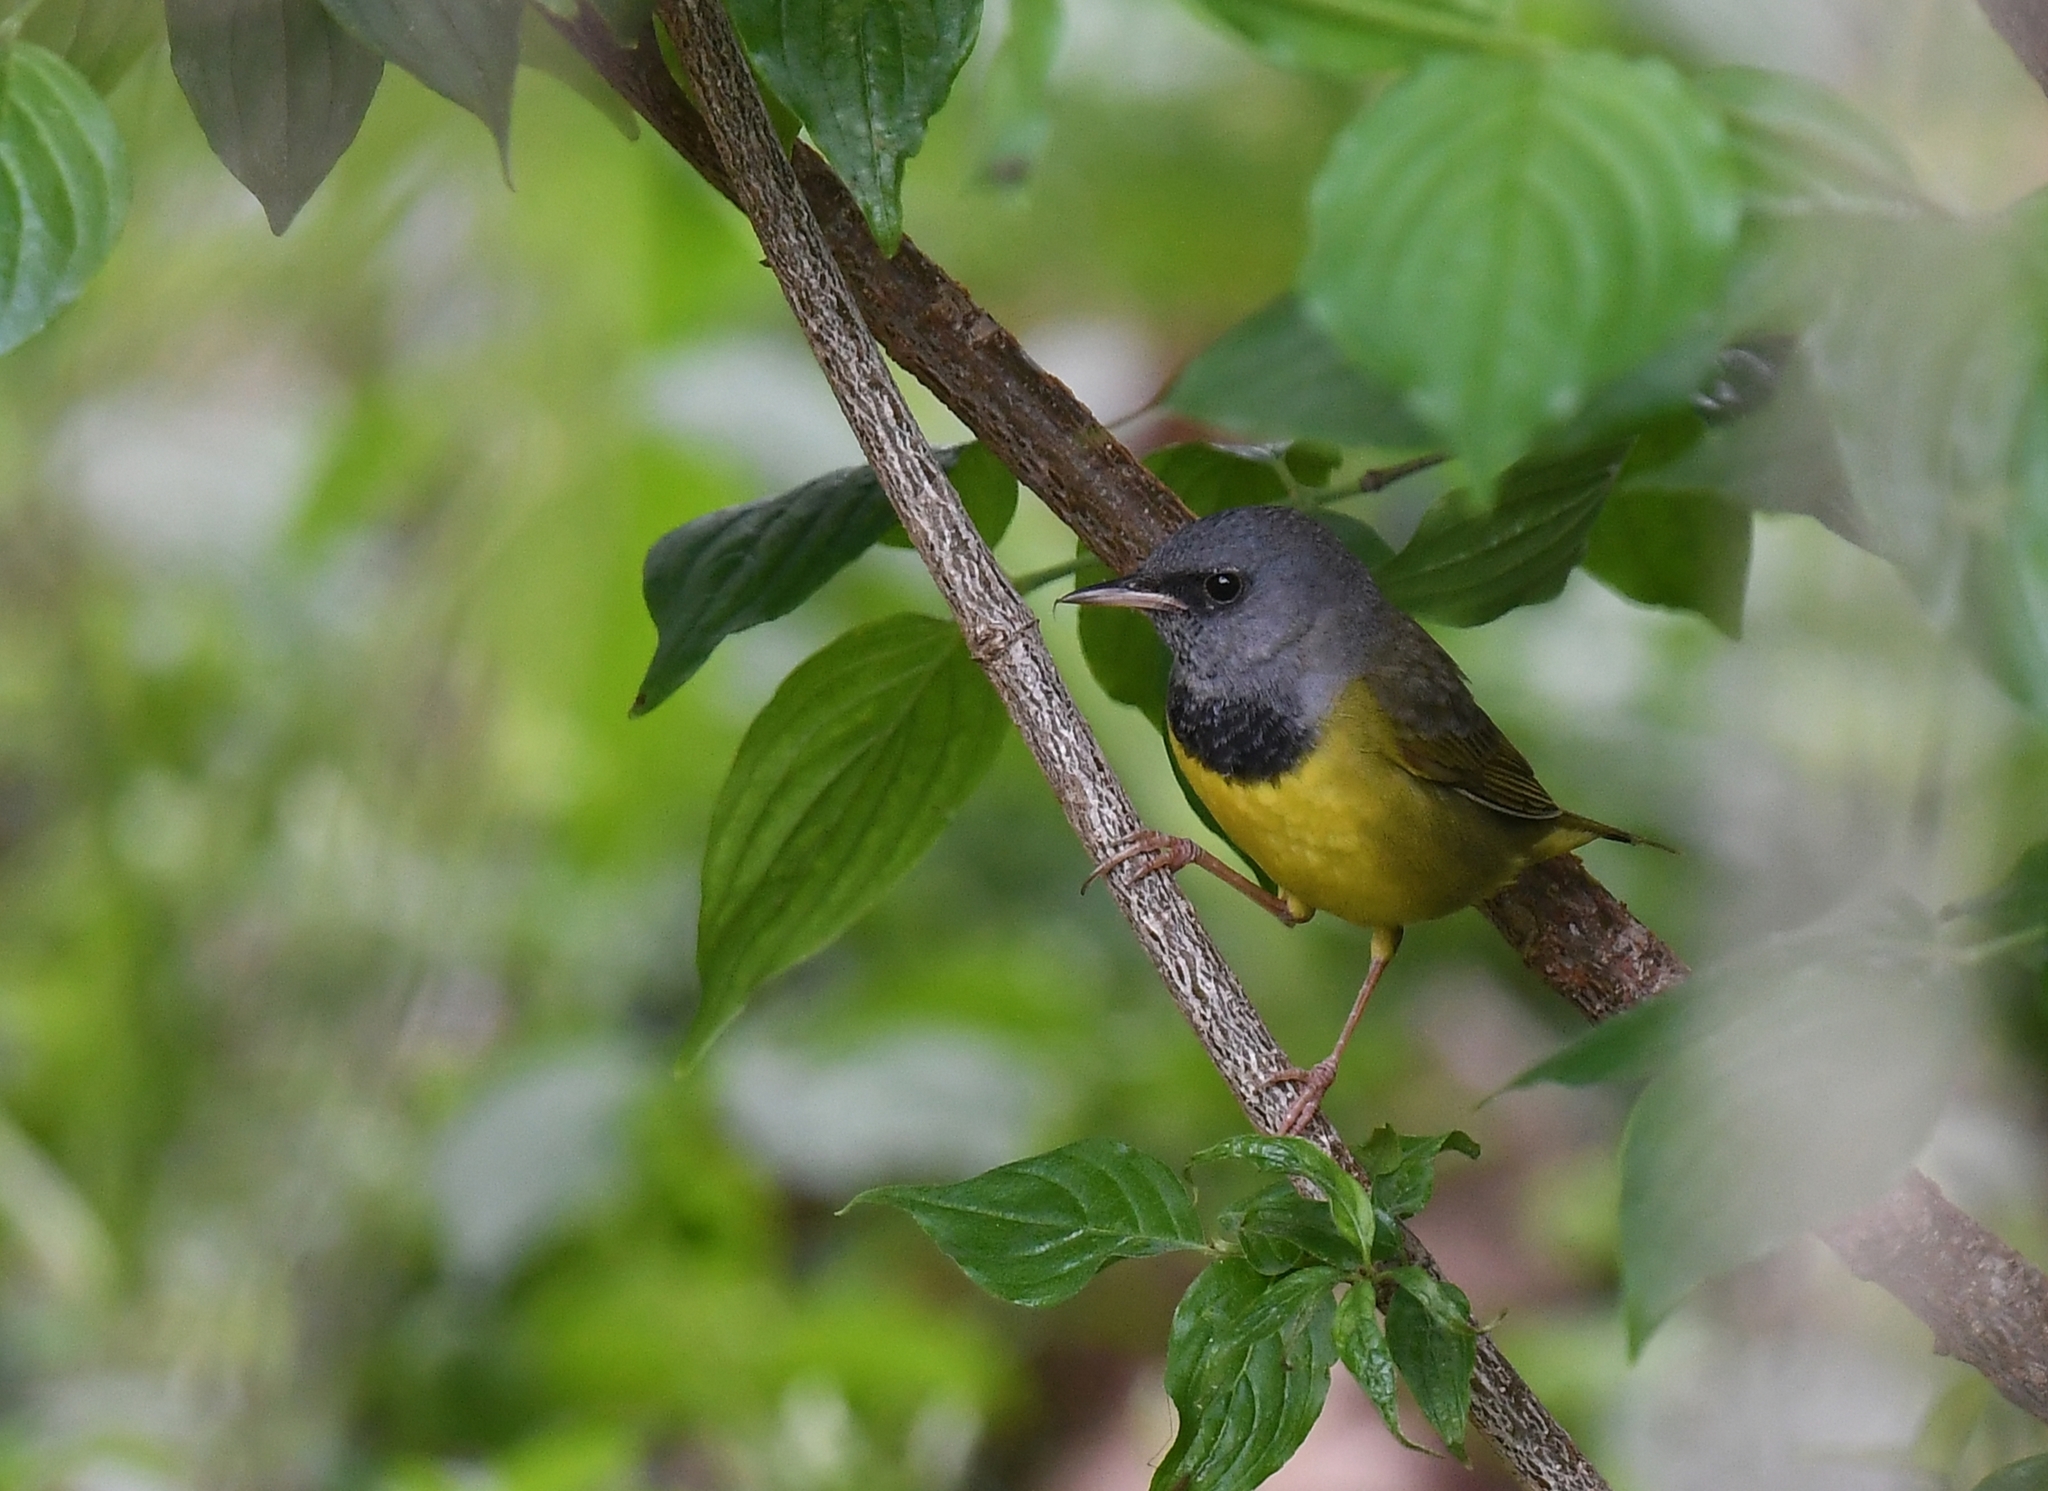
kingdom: Animalia
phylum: Chordata
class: Aves
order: Passeriformes
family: Parulidae
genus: Geothlypis
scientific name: Geothlypis philadelphia
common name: Mourning warbler
